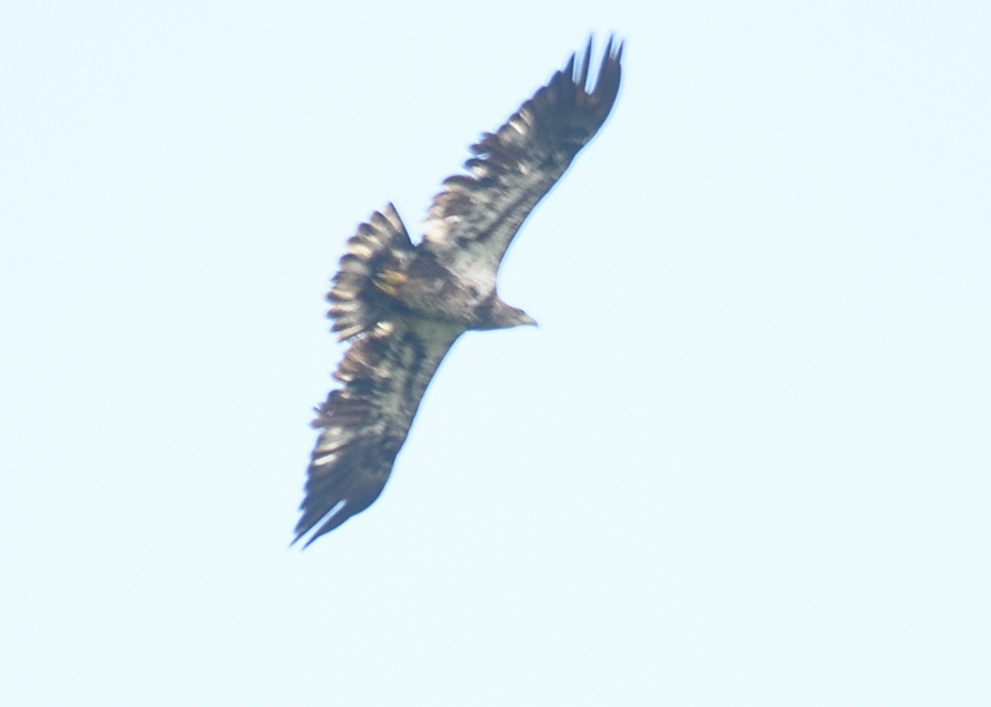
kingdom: Animalia
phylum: Chordata
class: Aves
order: Accipitriformes
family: Accipitridae
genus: Haliaeetus
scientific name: Haliaeetus leucocephalus
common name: Bald eagle
